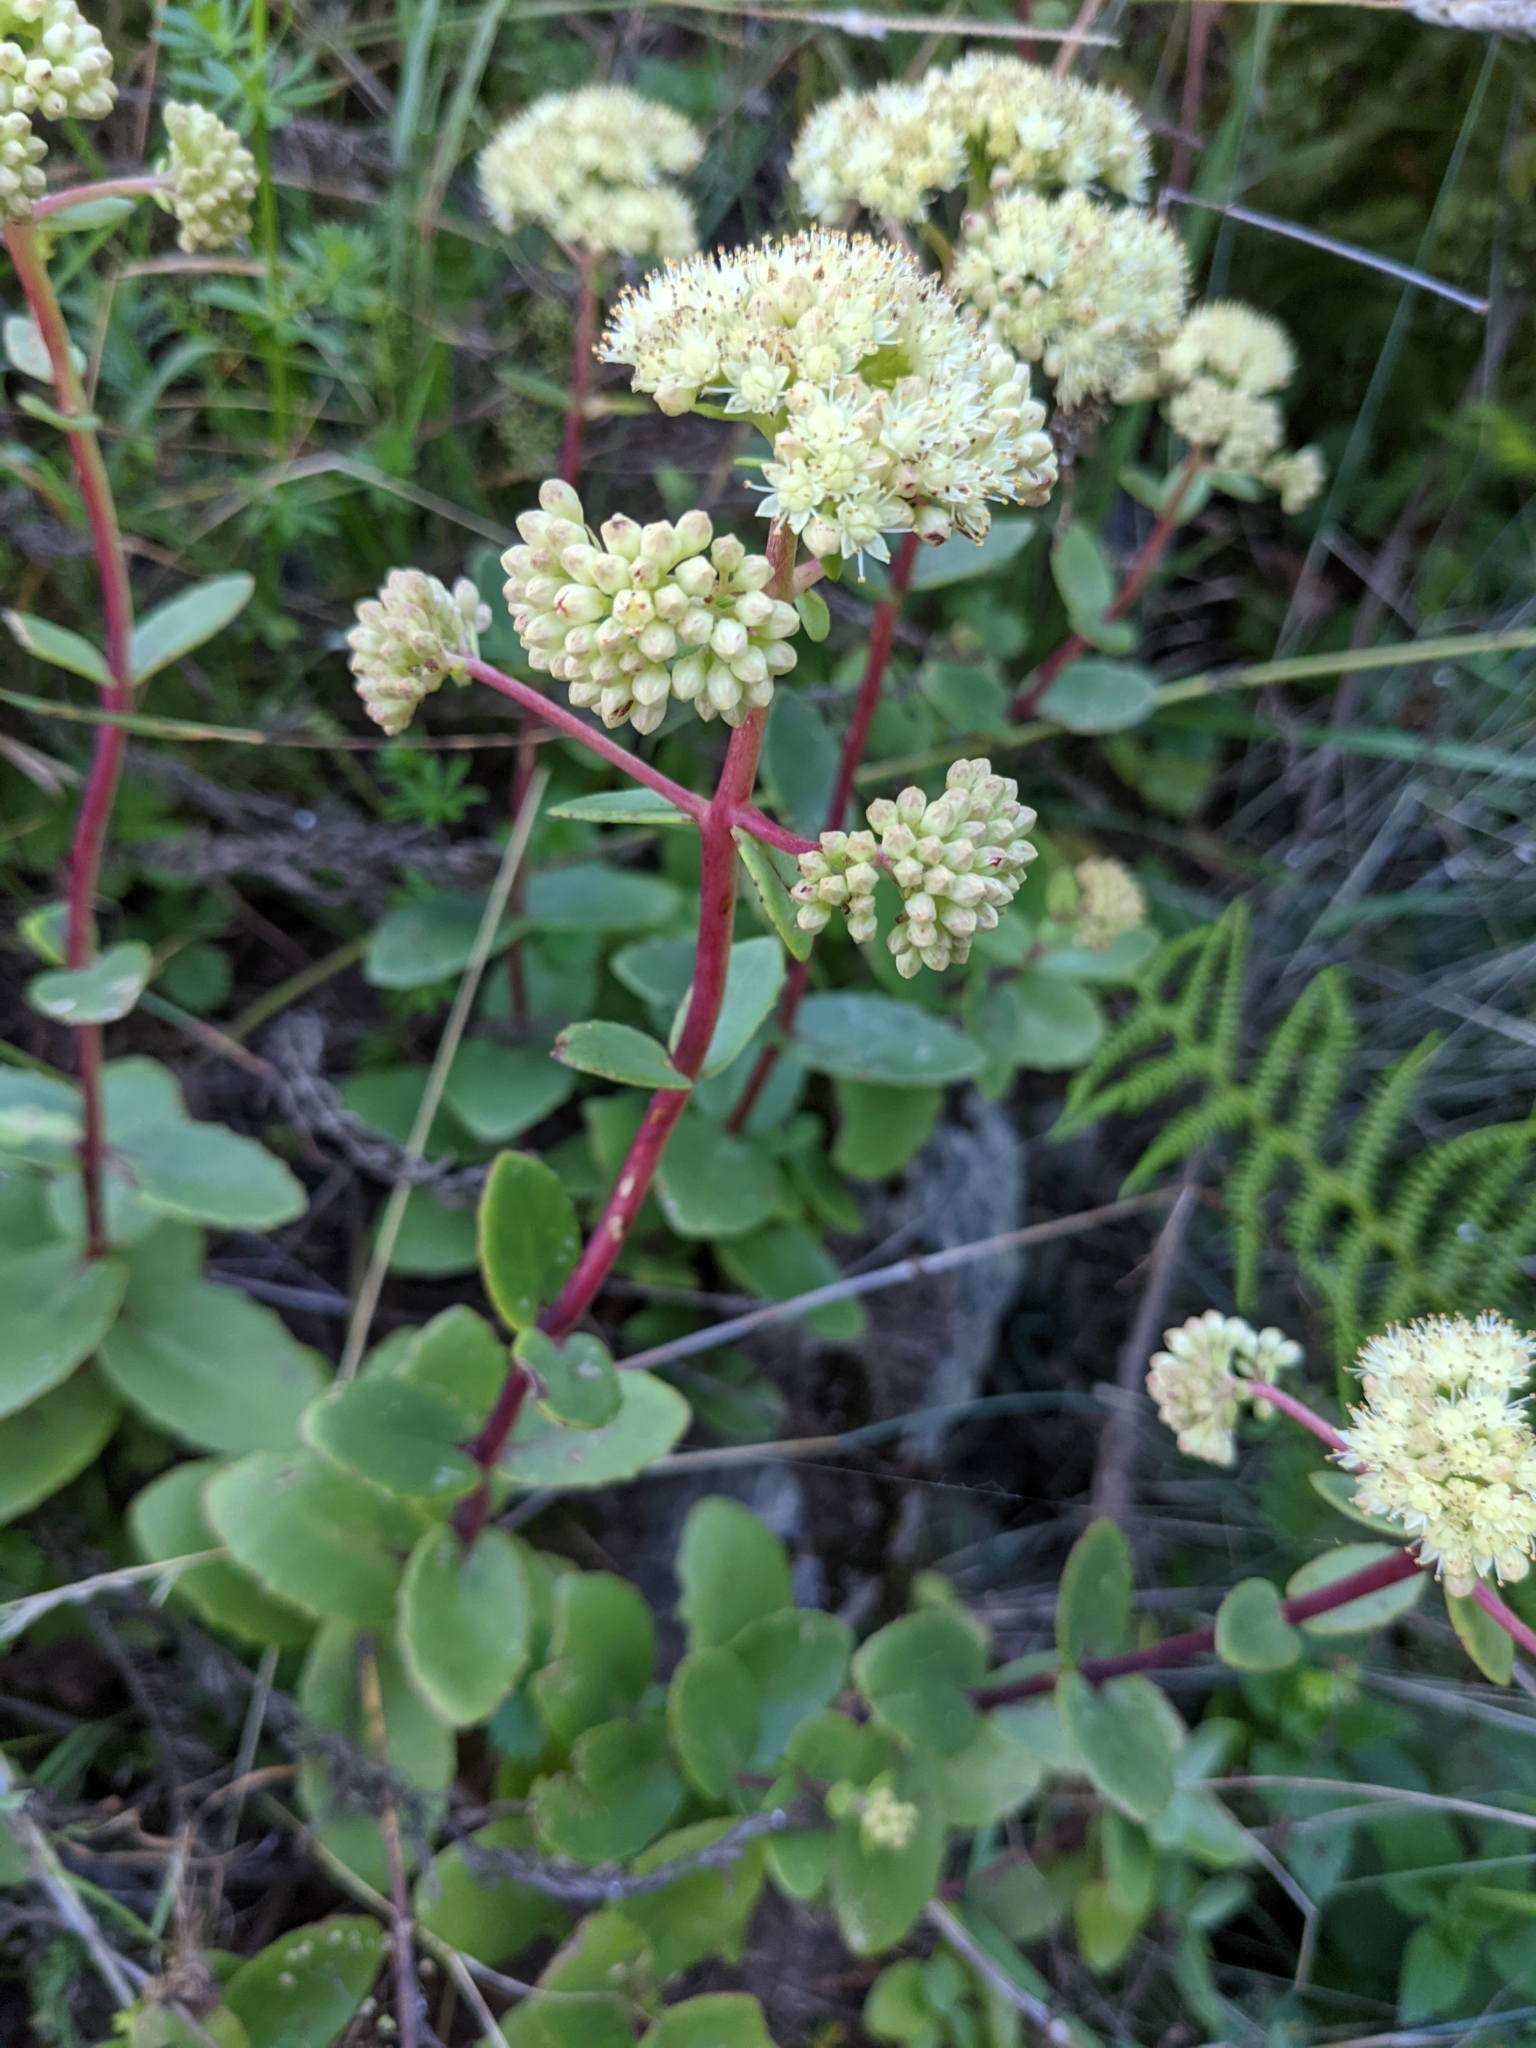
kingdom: Plantae
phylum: Tracheophyta
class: Magnoliopsida
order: Saxifragales
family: Crassulaceae
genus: Hylotelephium
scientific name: Hylotelephium maximum
